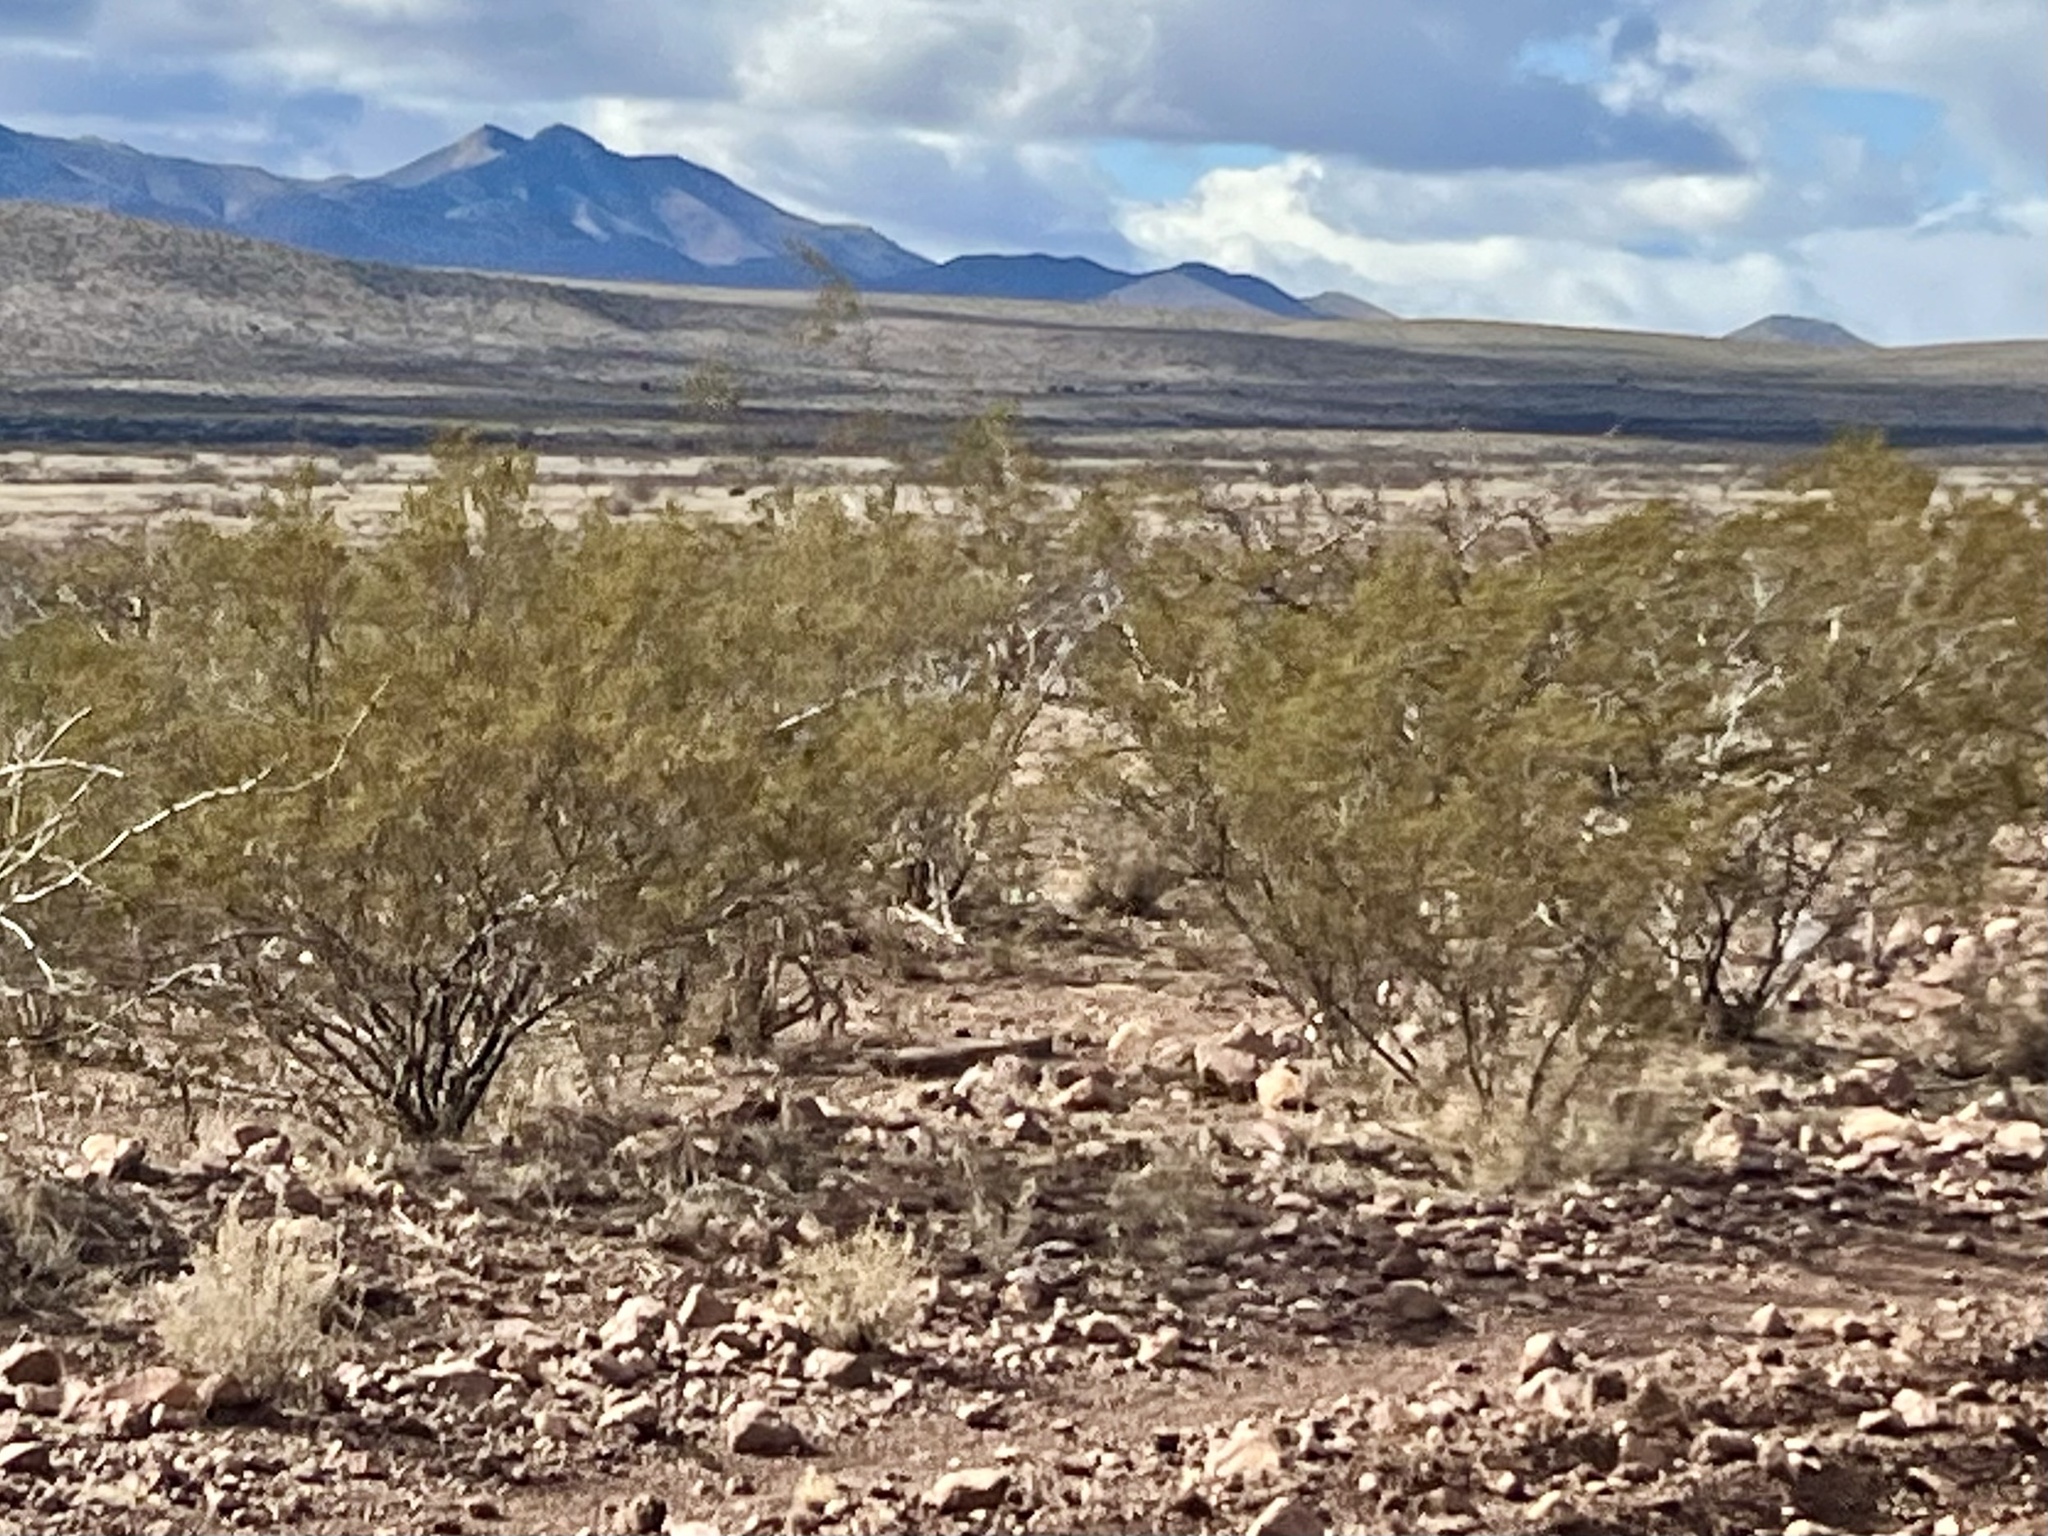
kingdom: Plantae
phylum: Tracheophyta
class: Magnoliopsida
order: Zygophyllales
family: Zygophyllaceae
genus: Larrea
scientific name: Larrea tridentata
